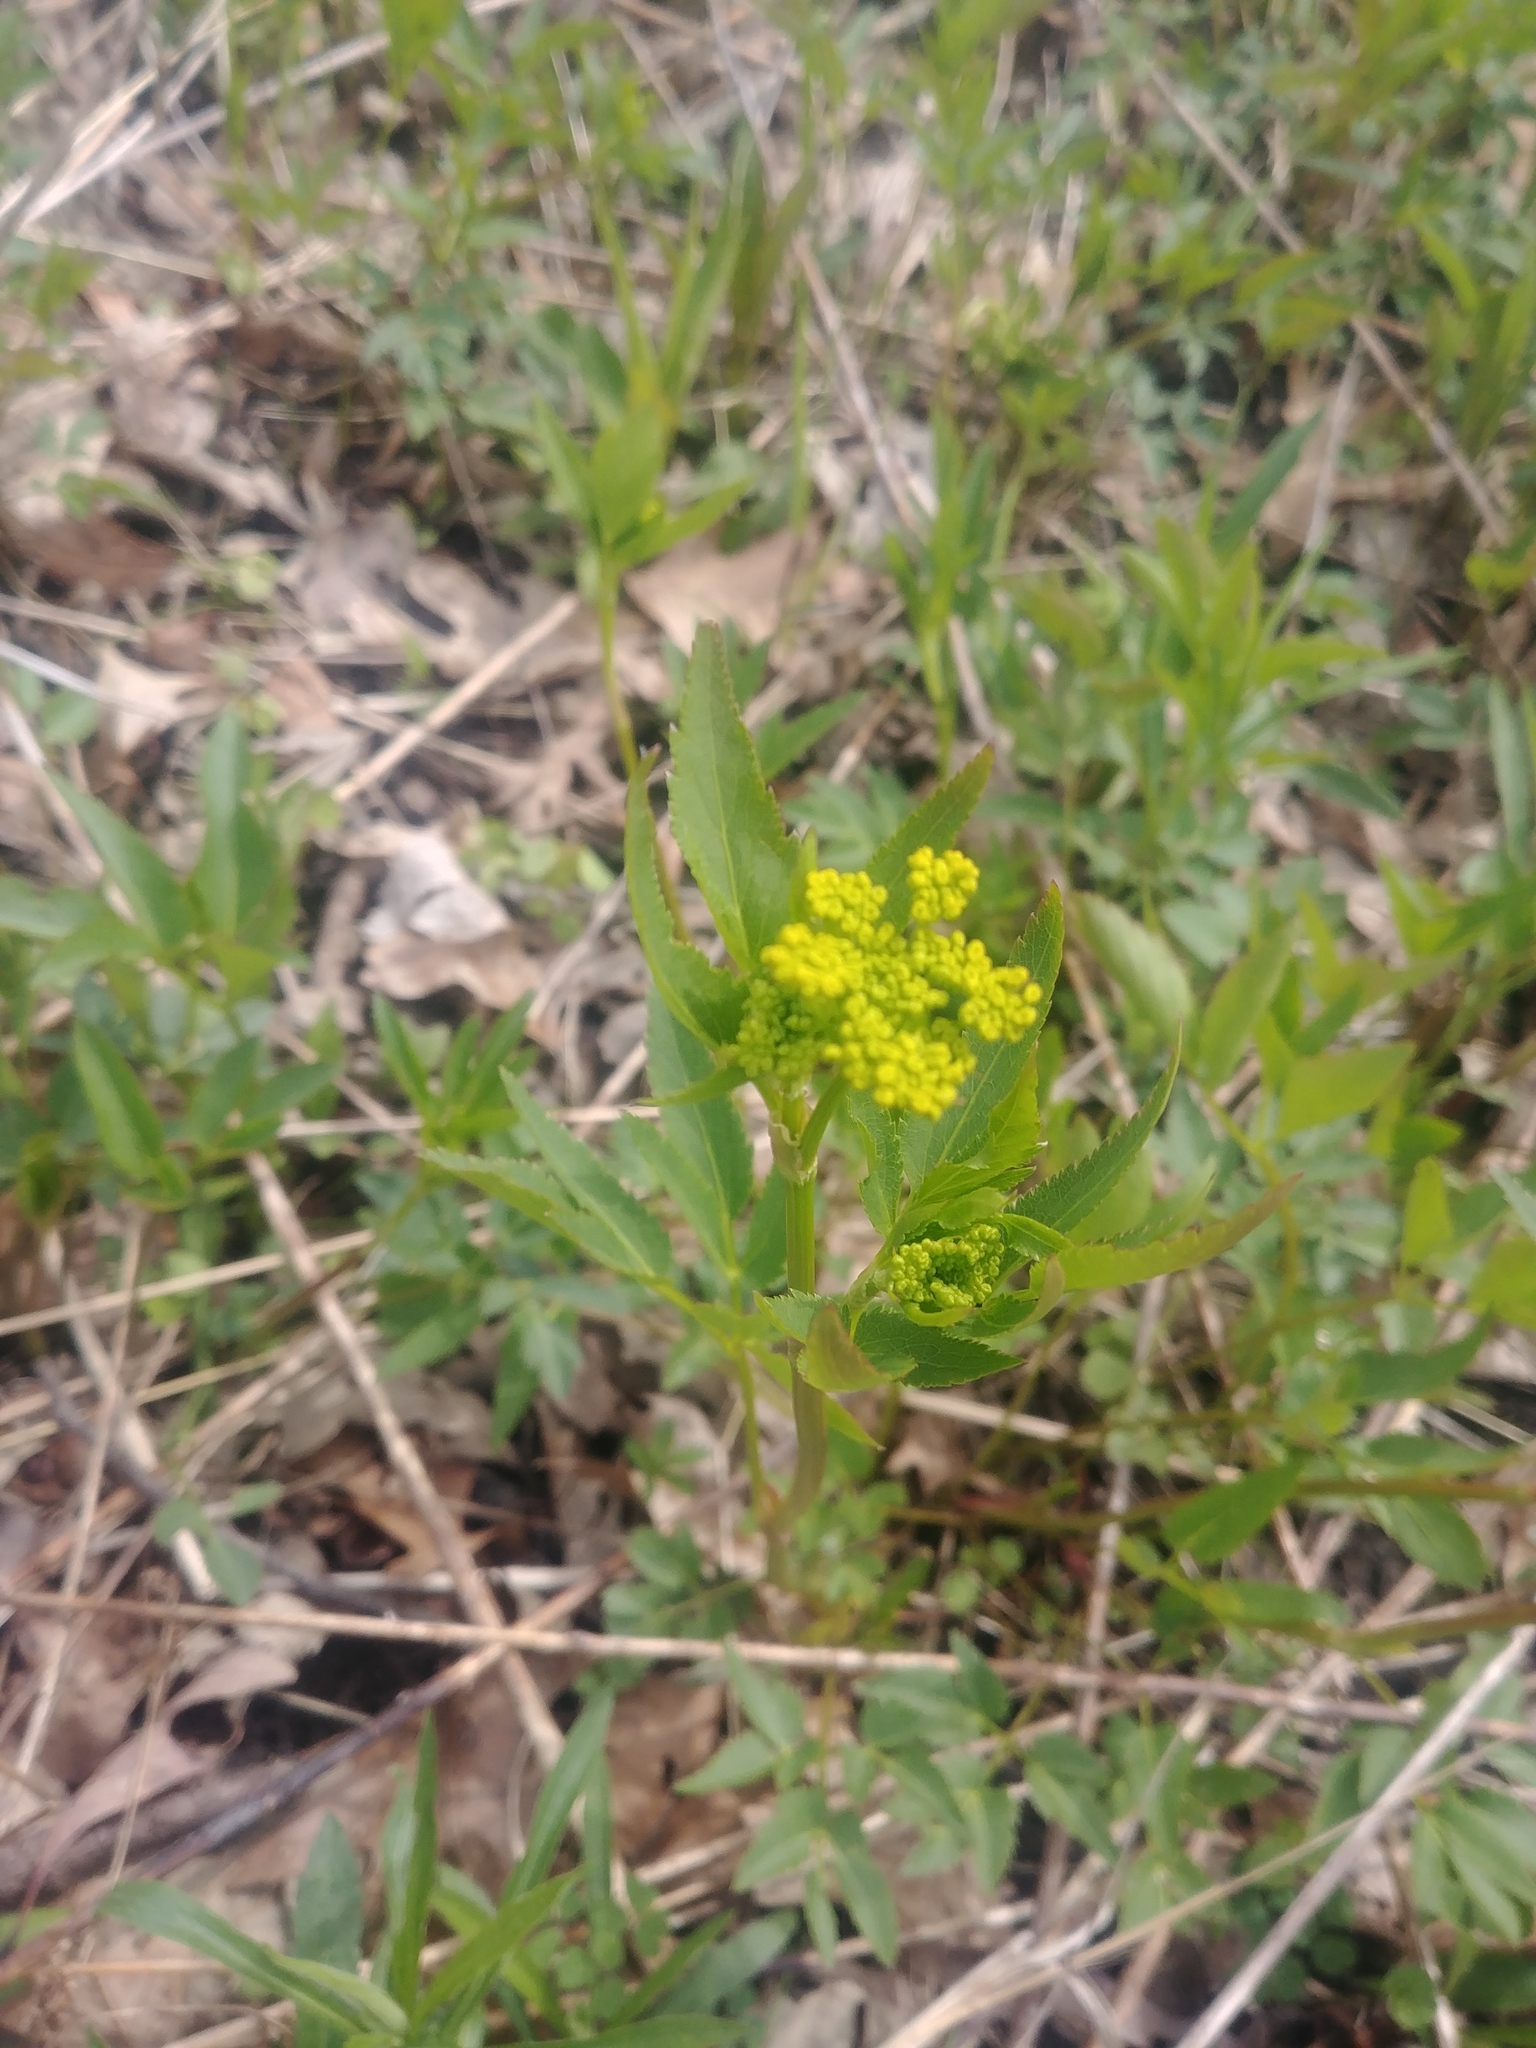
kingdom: Plantae
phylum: Tracheophyta
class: Magnoliopsida
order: Apiales
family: Apiaceae
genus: Zizia
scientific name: Zizia aurea
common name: Golden alexanders
